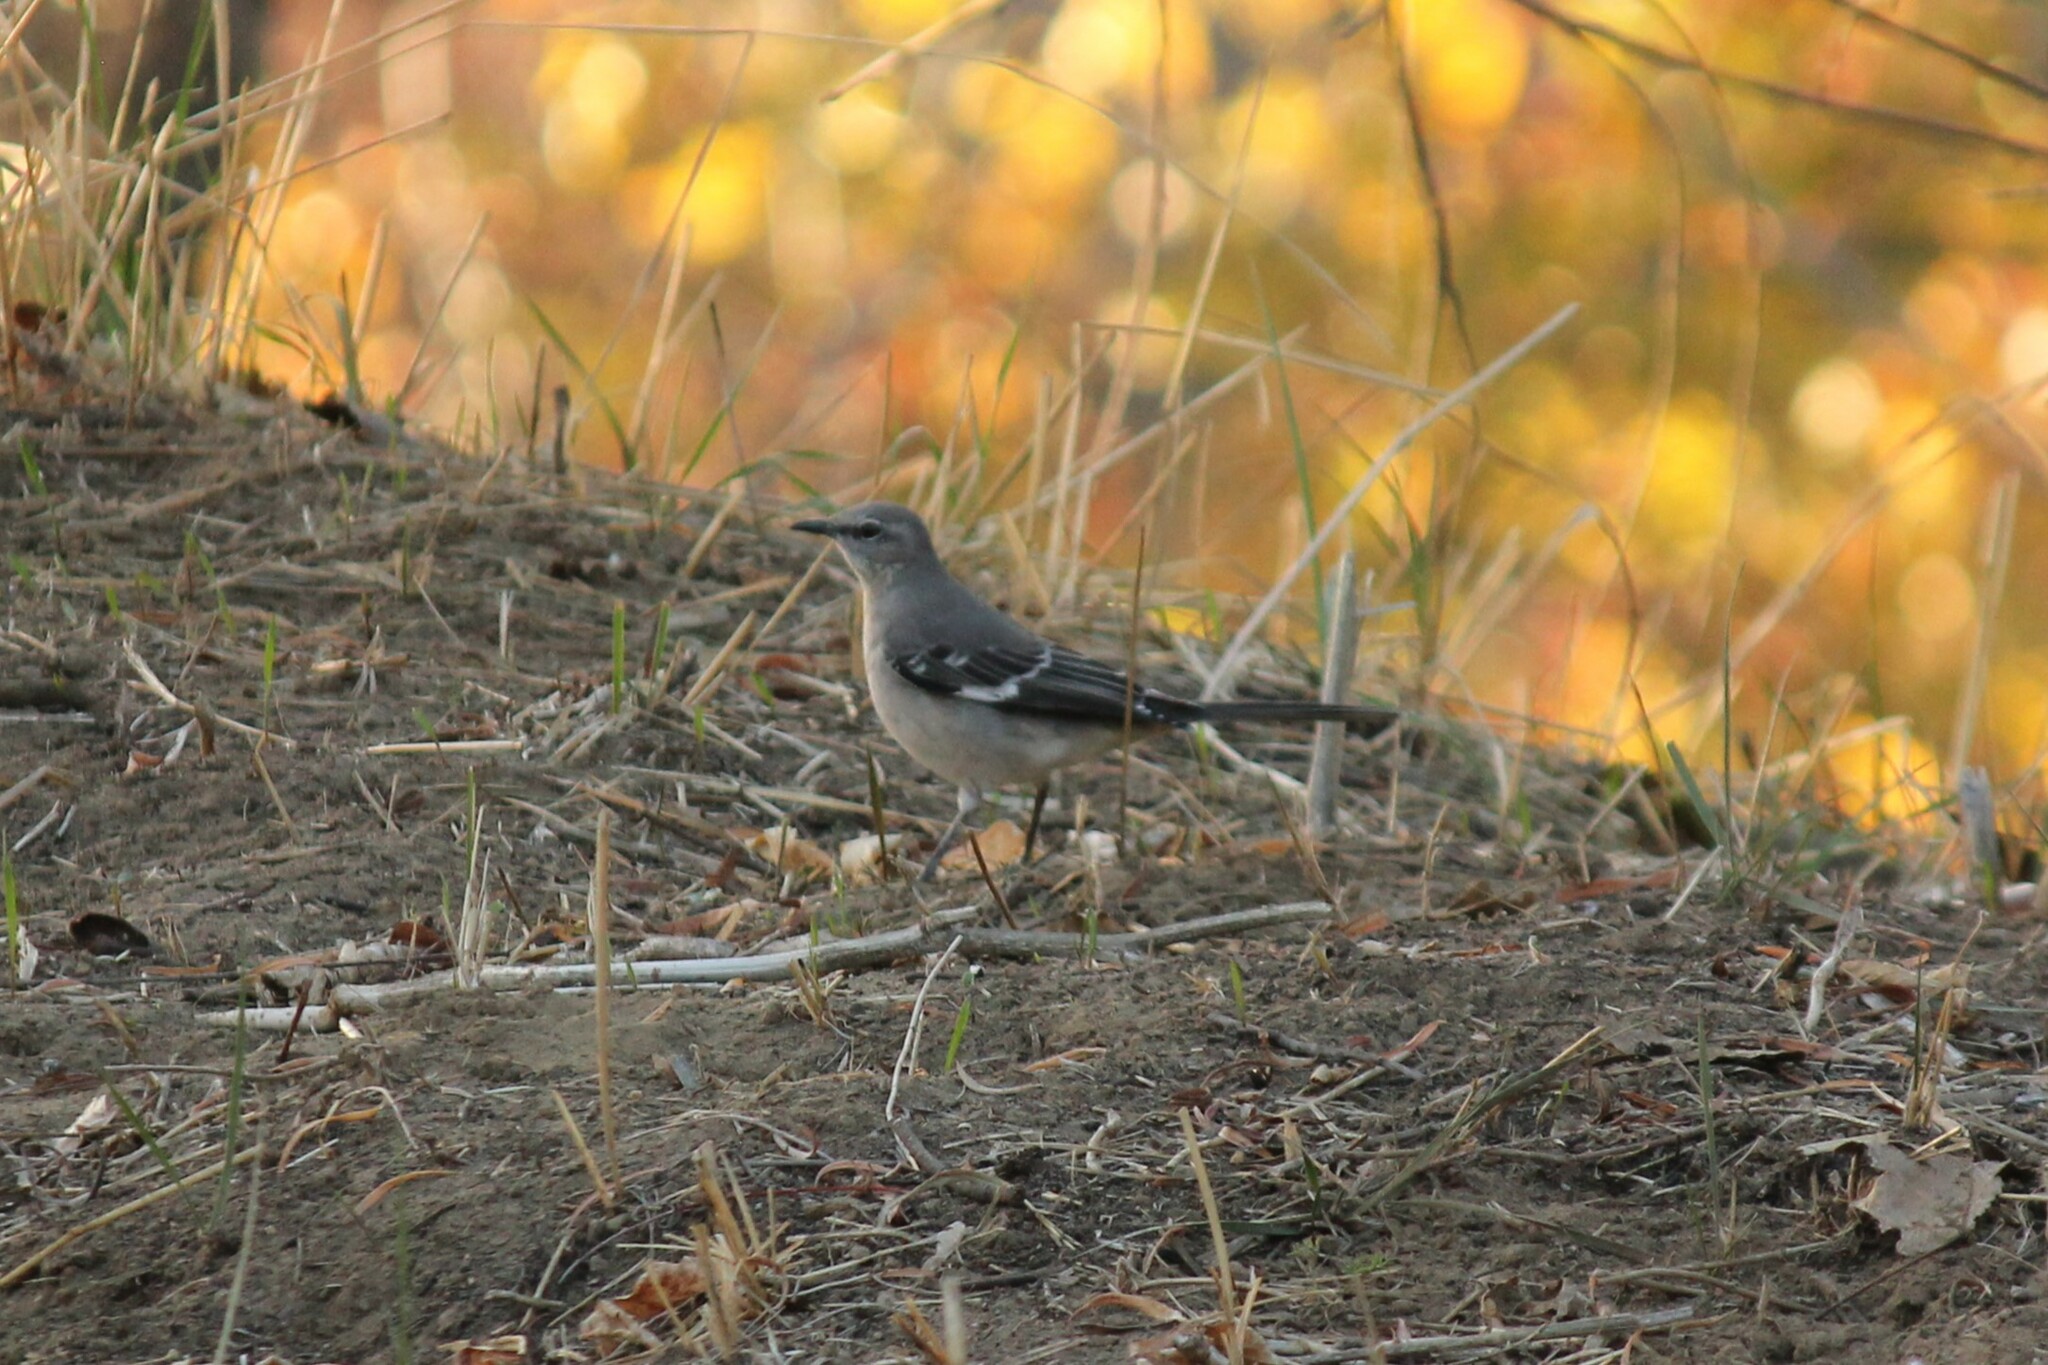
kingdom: Animalia
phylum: Chordata
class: Aves
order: Passeriformes
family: Mimidae
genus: Mimus
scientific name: Mimus polyglottos
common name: Northern mockingbird
